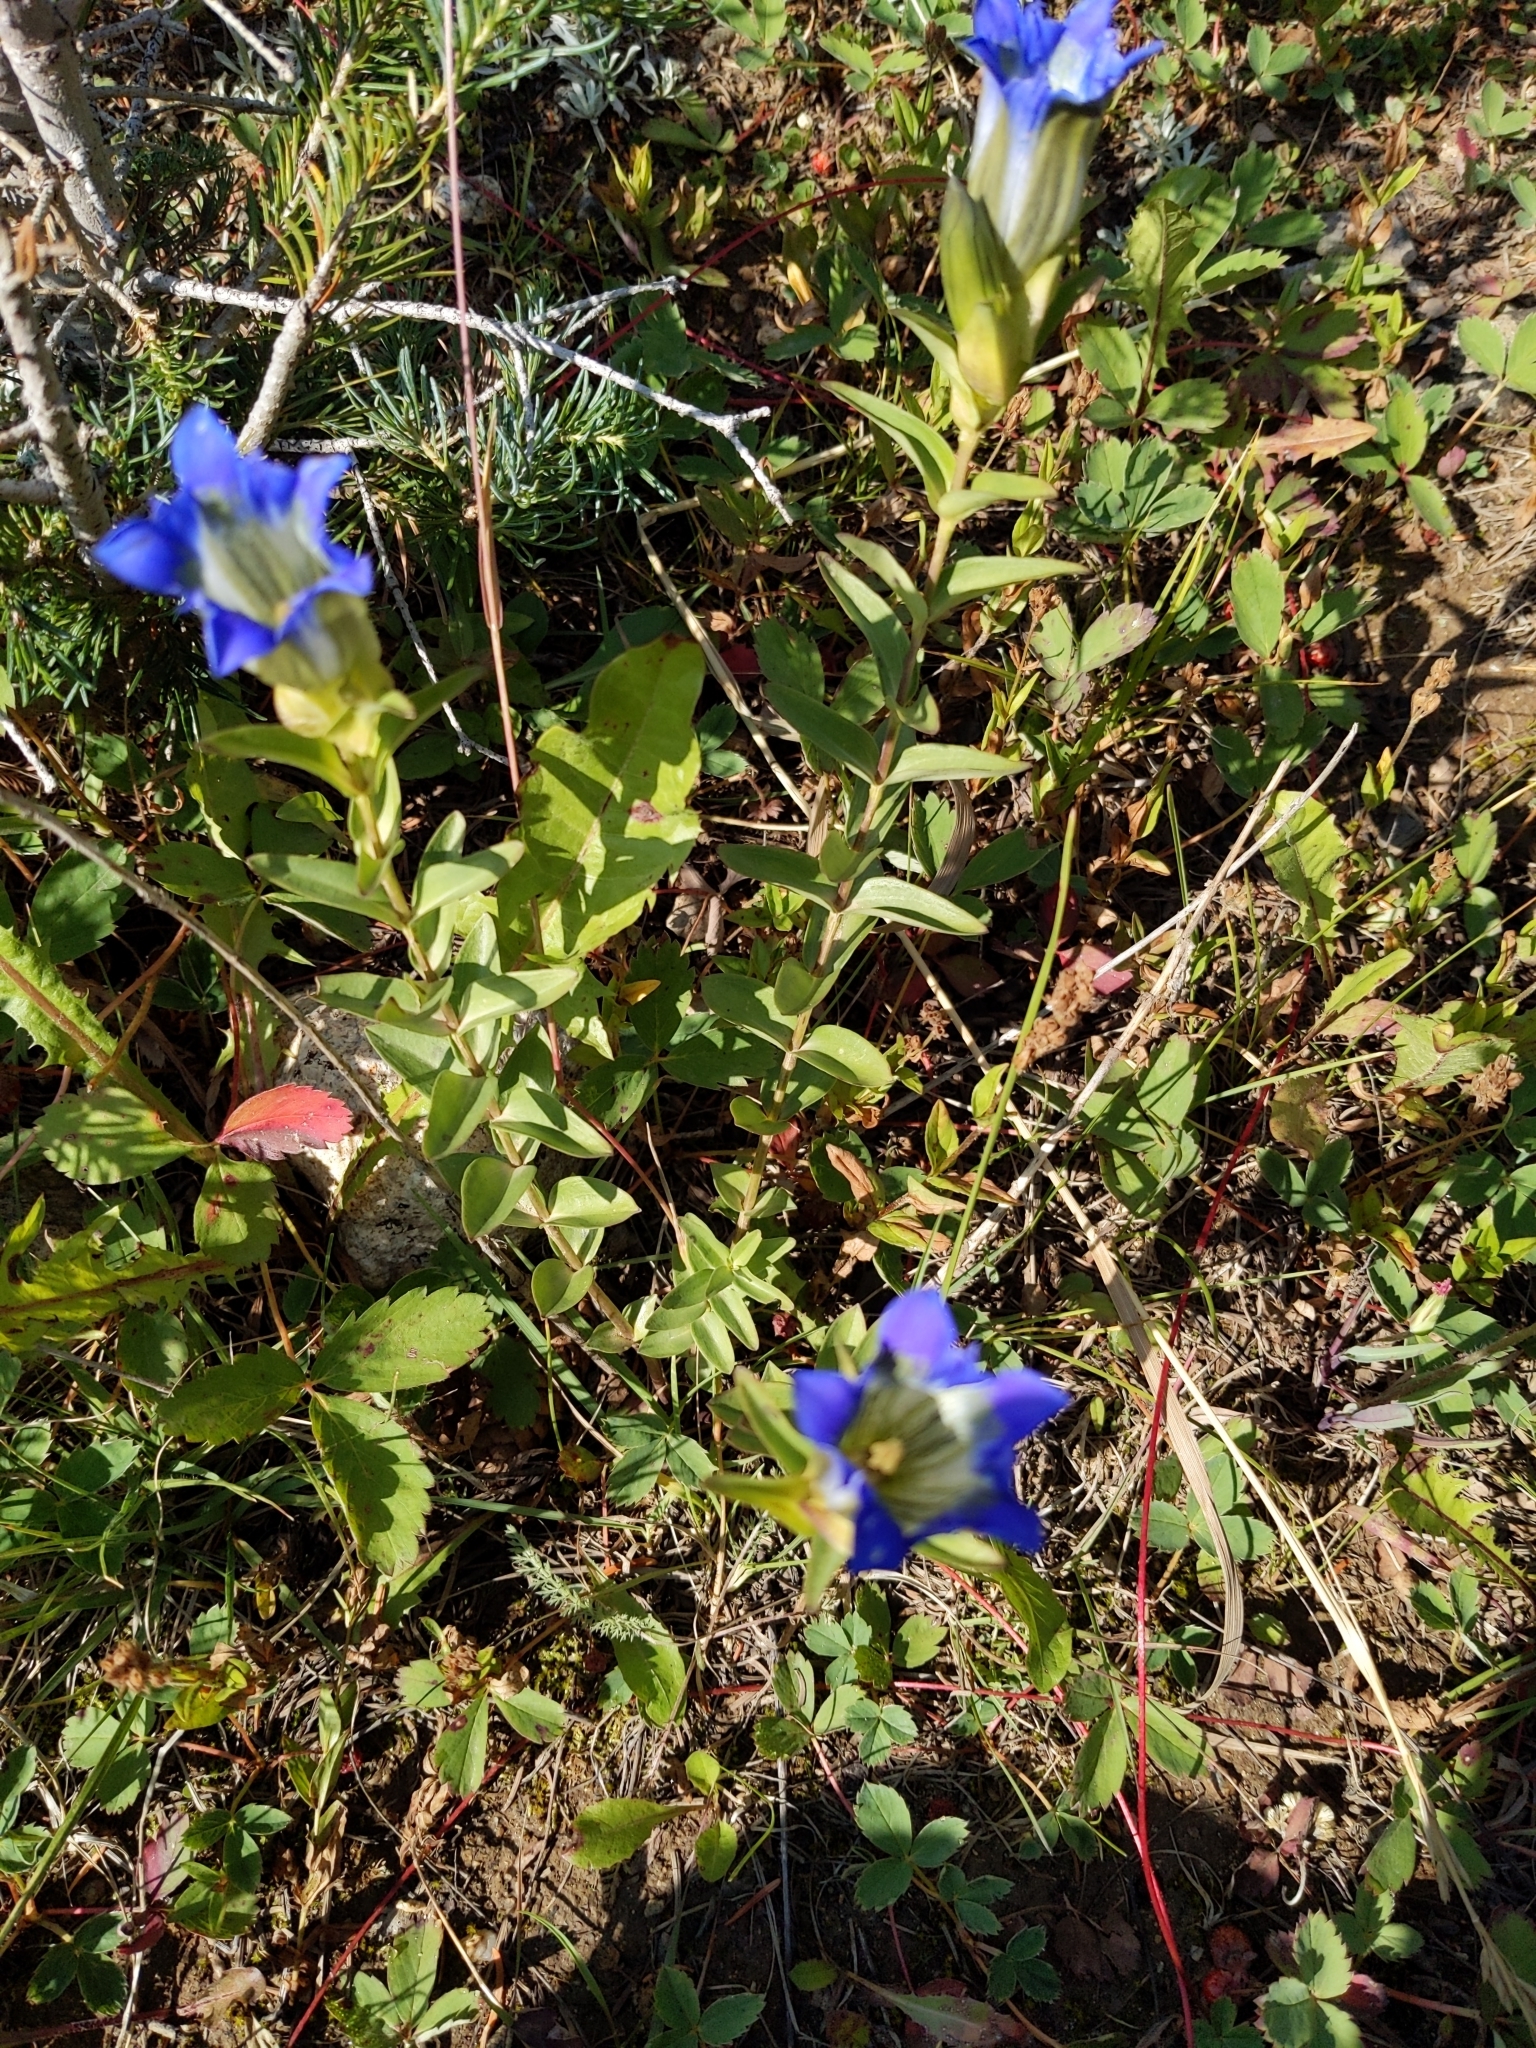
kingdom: Plantae
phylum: Tracheophyta
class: Magnoliopsida
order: Gentianales
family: Gentianaceae
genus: Gentiana
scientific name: Gentiana parryi
